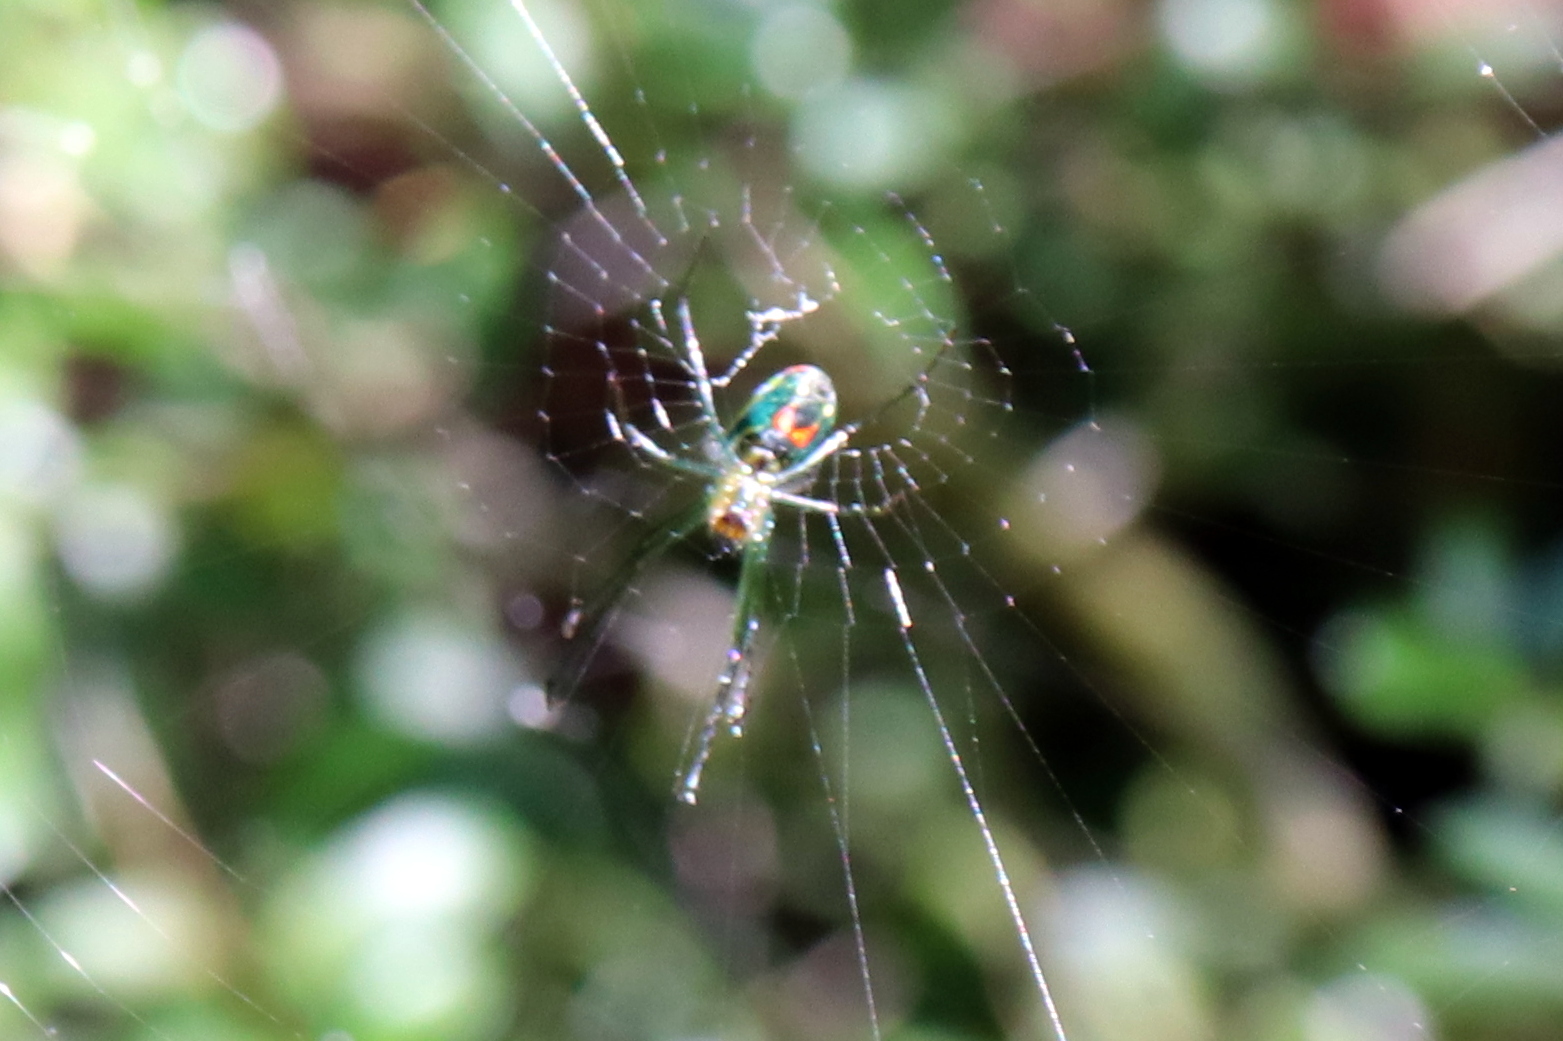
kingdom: Animalia
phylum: Arthropoda
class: Arachnida
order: Araneae
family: Tetragnathidae
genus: Leucauge
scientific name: Leucauge argyrobapta
